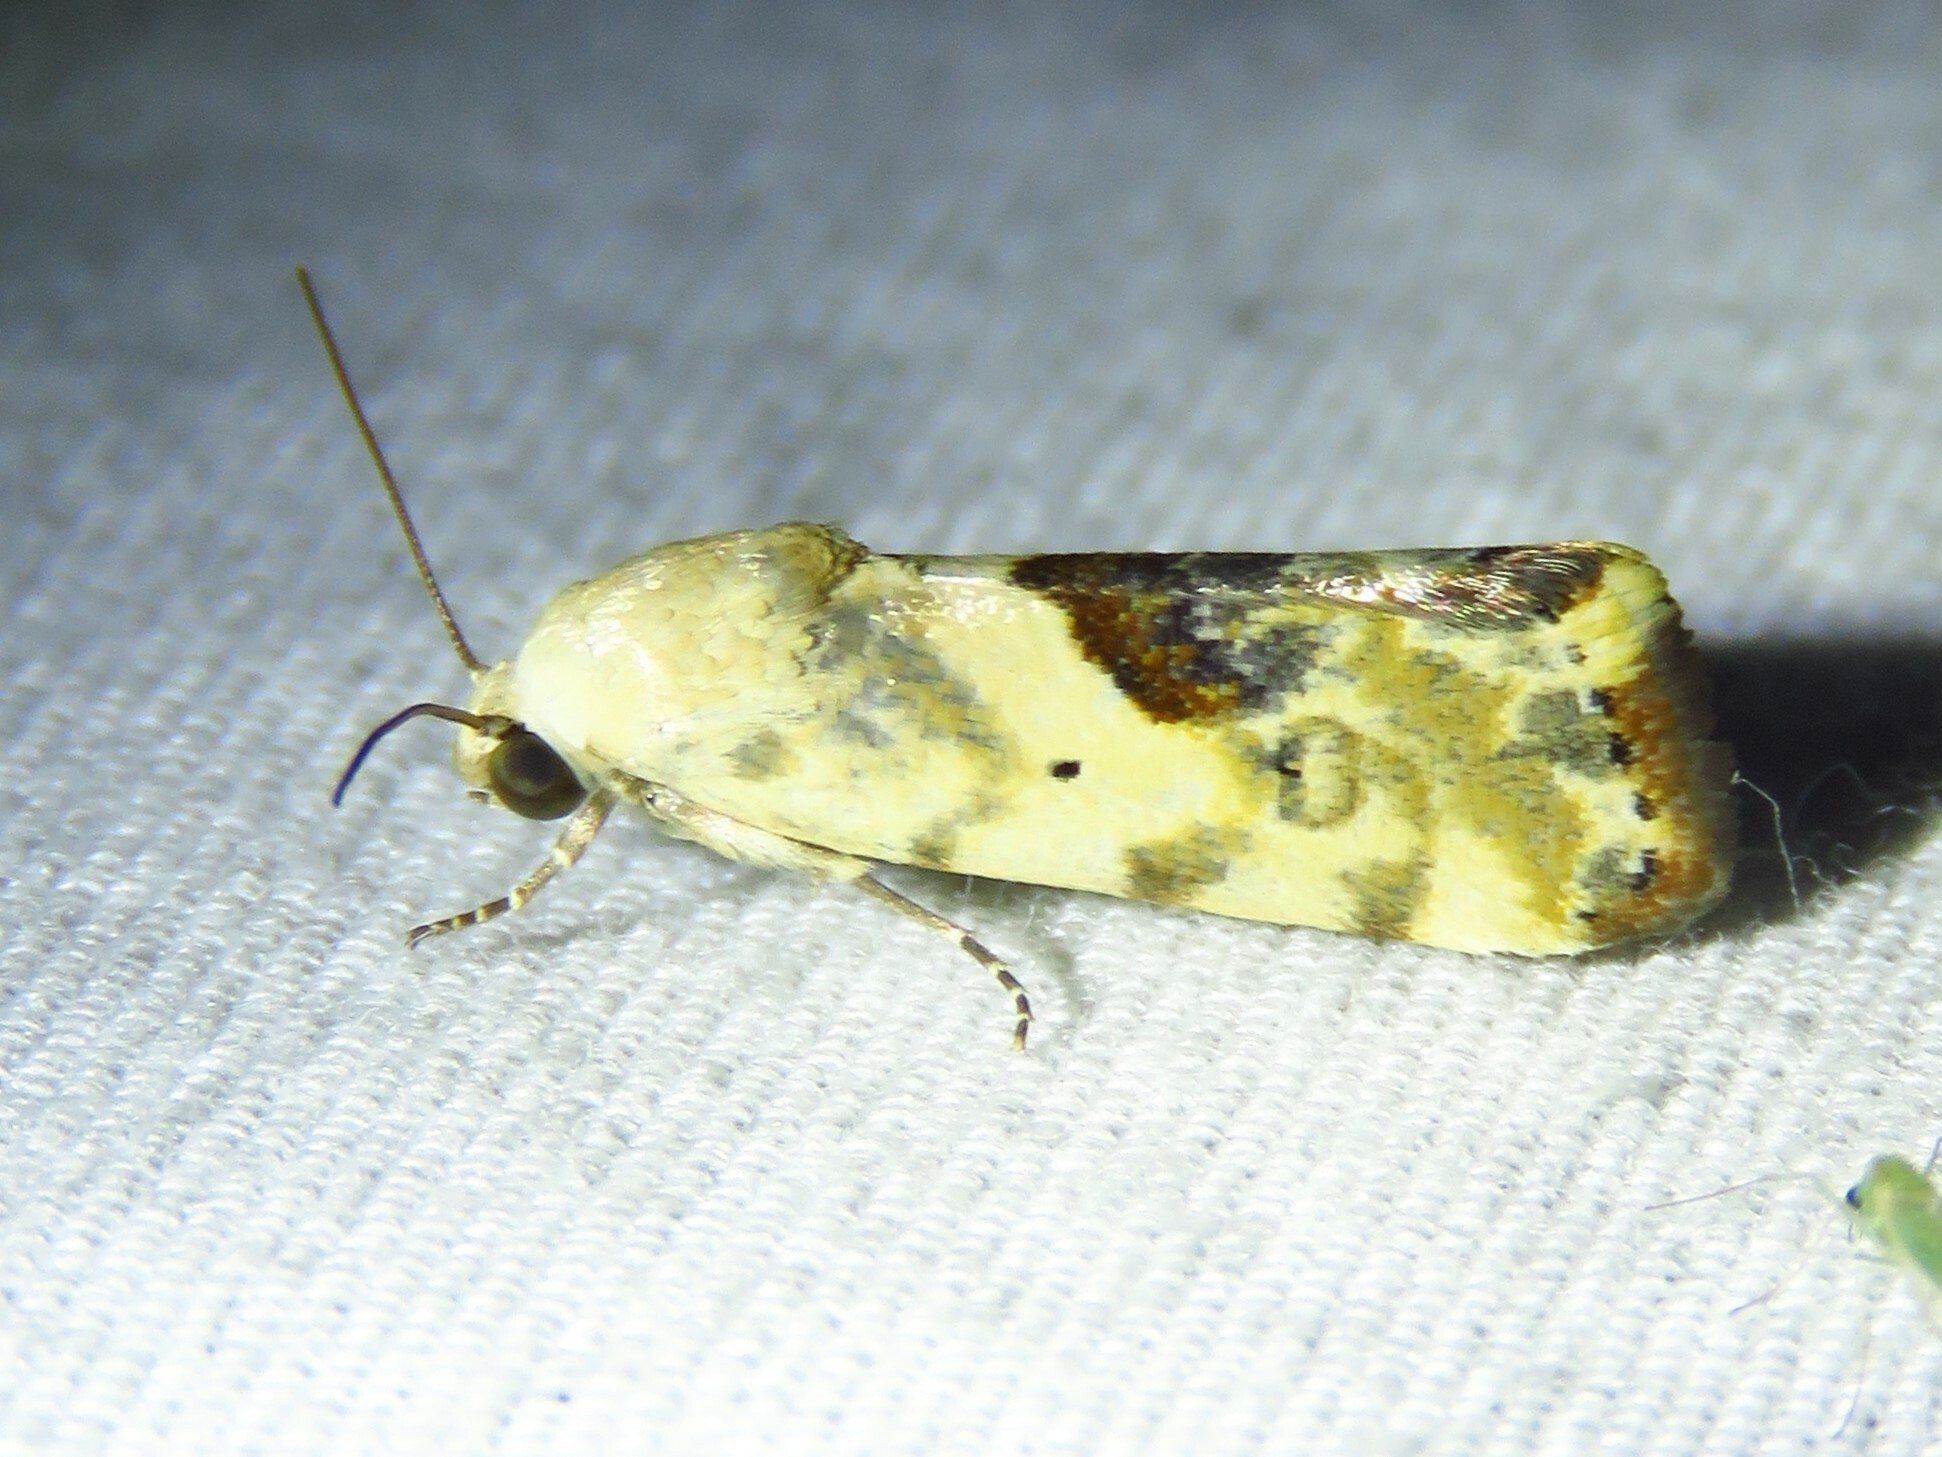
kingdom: Animalia
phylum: Arthropoda
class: Insecta
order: Lepidoptera
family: Noctuidae
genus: Acontia
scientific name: Acontia libedis
